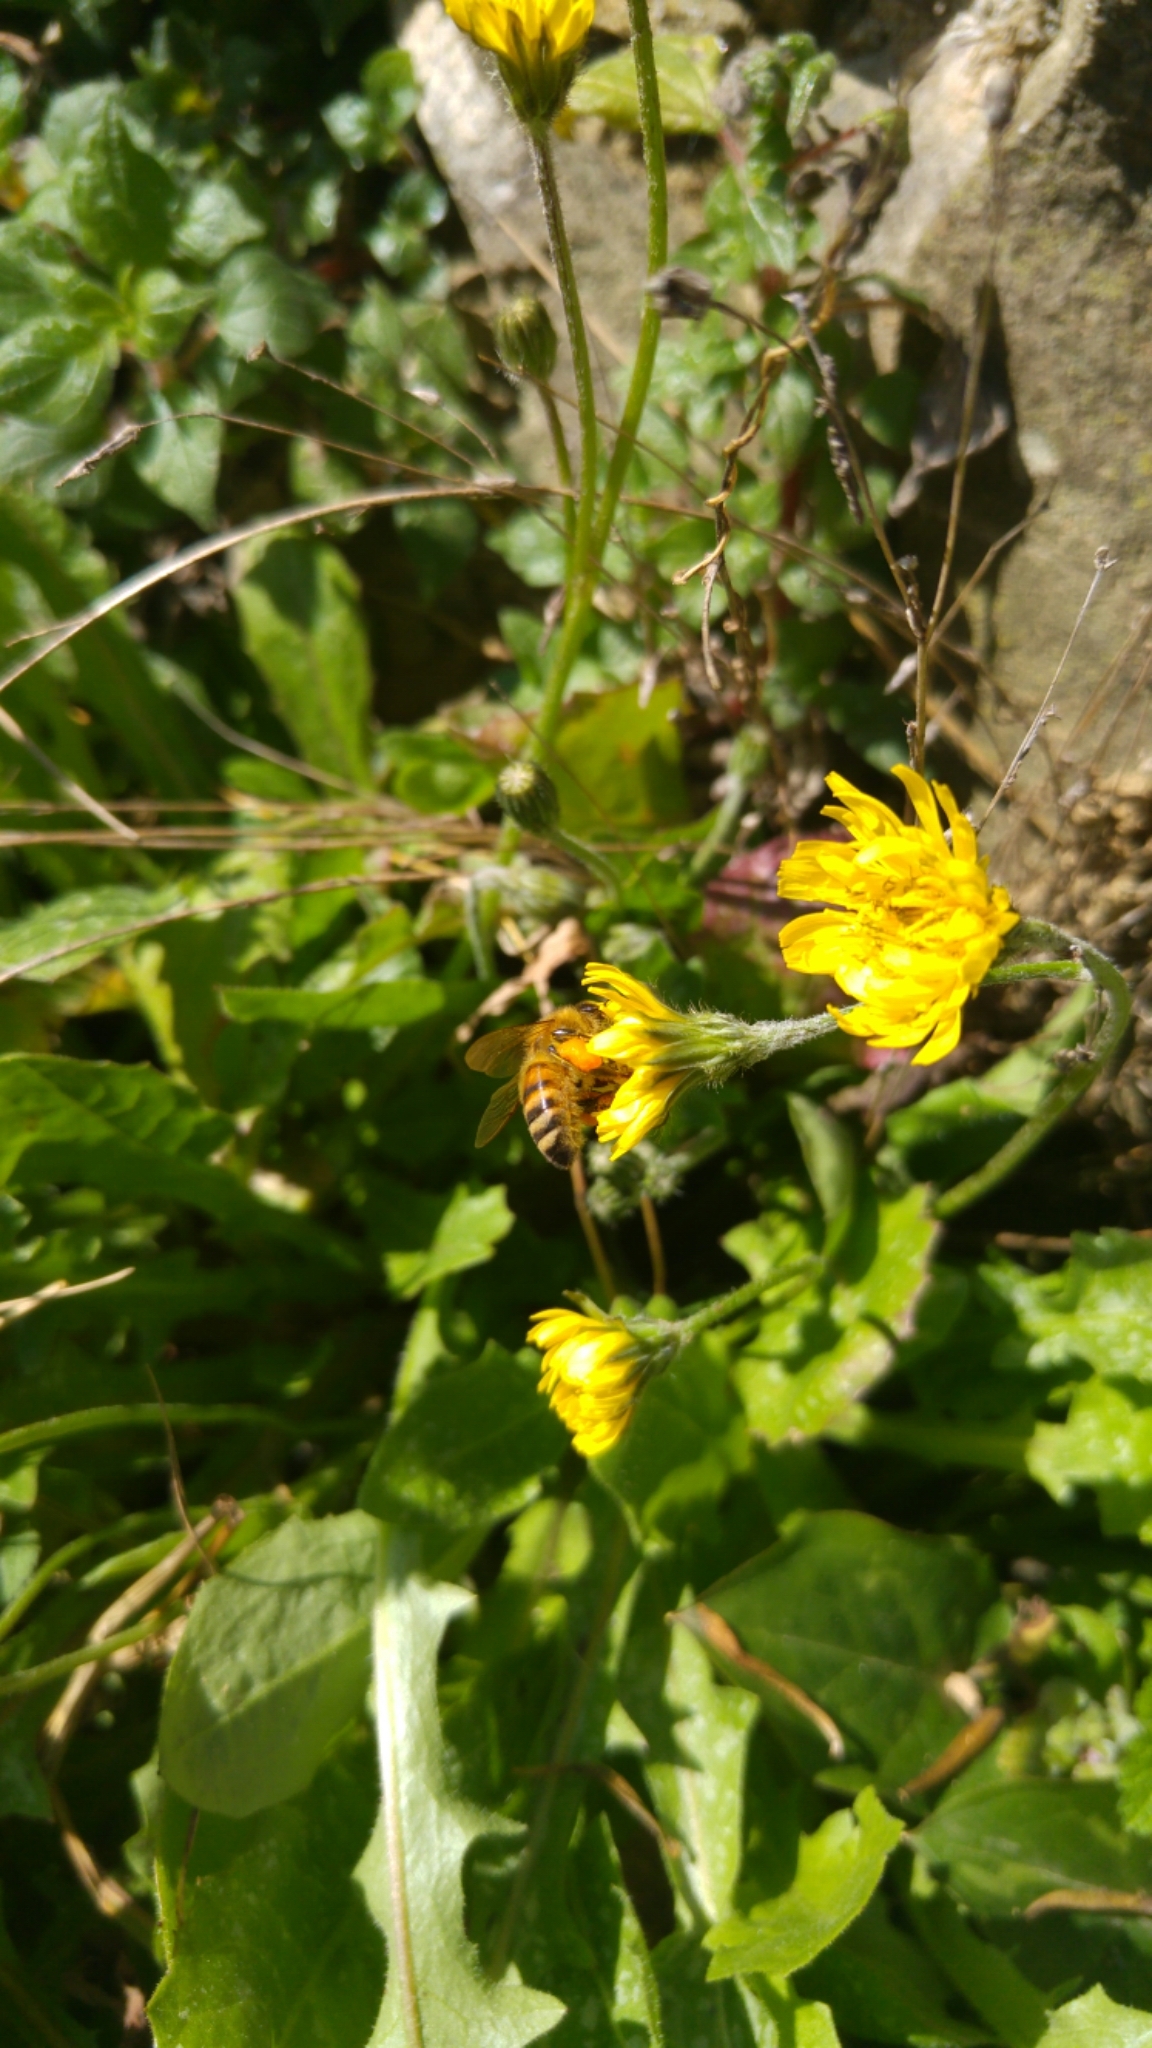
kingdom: Animalia
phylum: Arthropoda
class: Insecta
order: Hymenoptera
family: Apidae
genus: Apis
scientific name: Apis mellifera
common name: Honey bee
